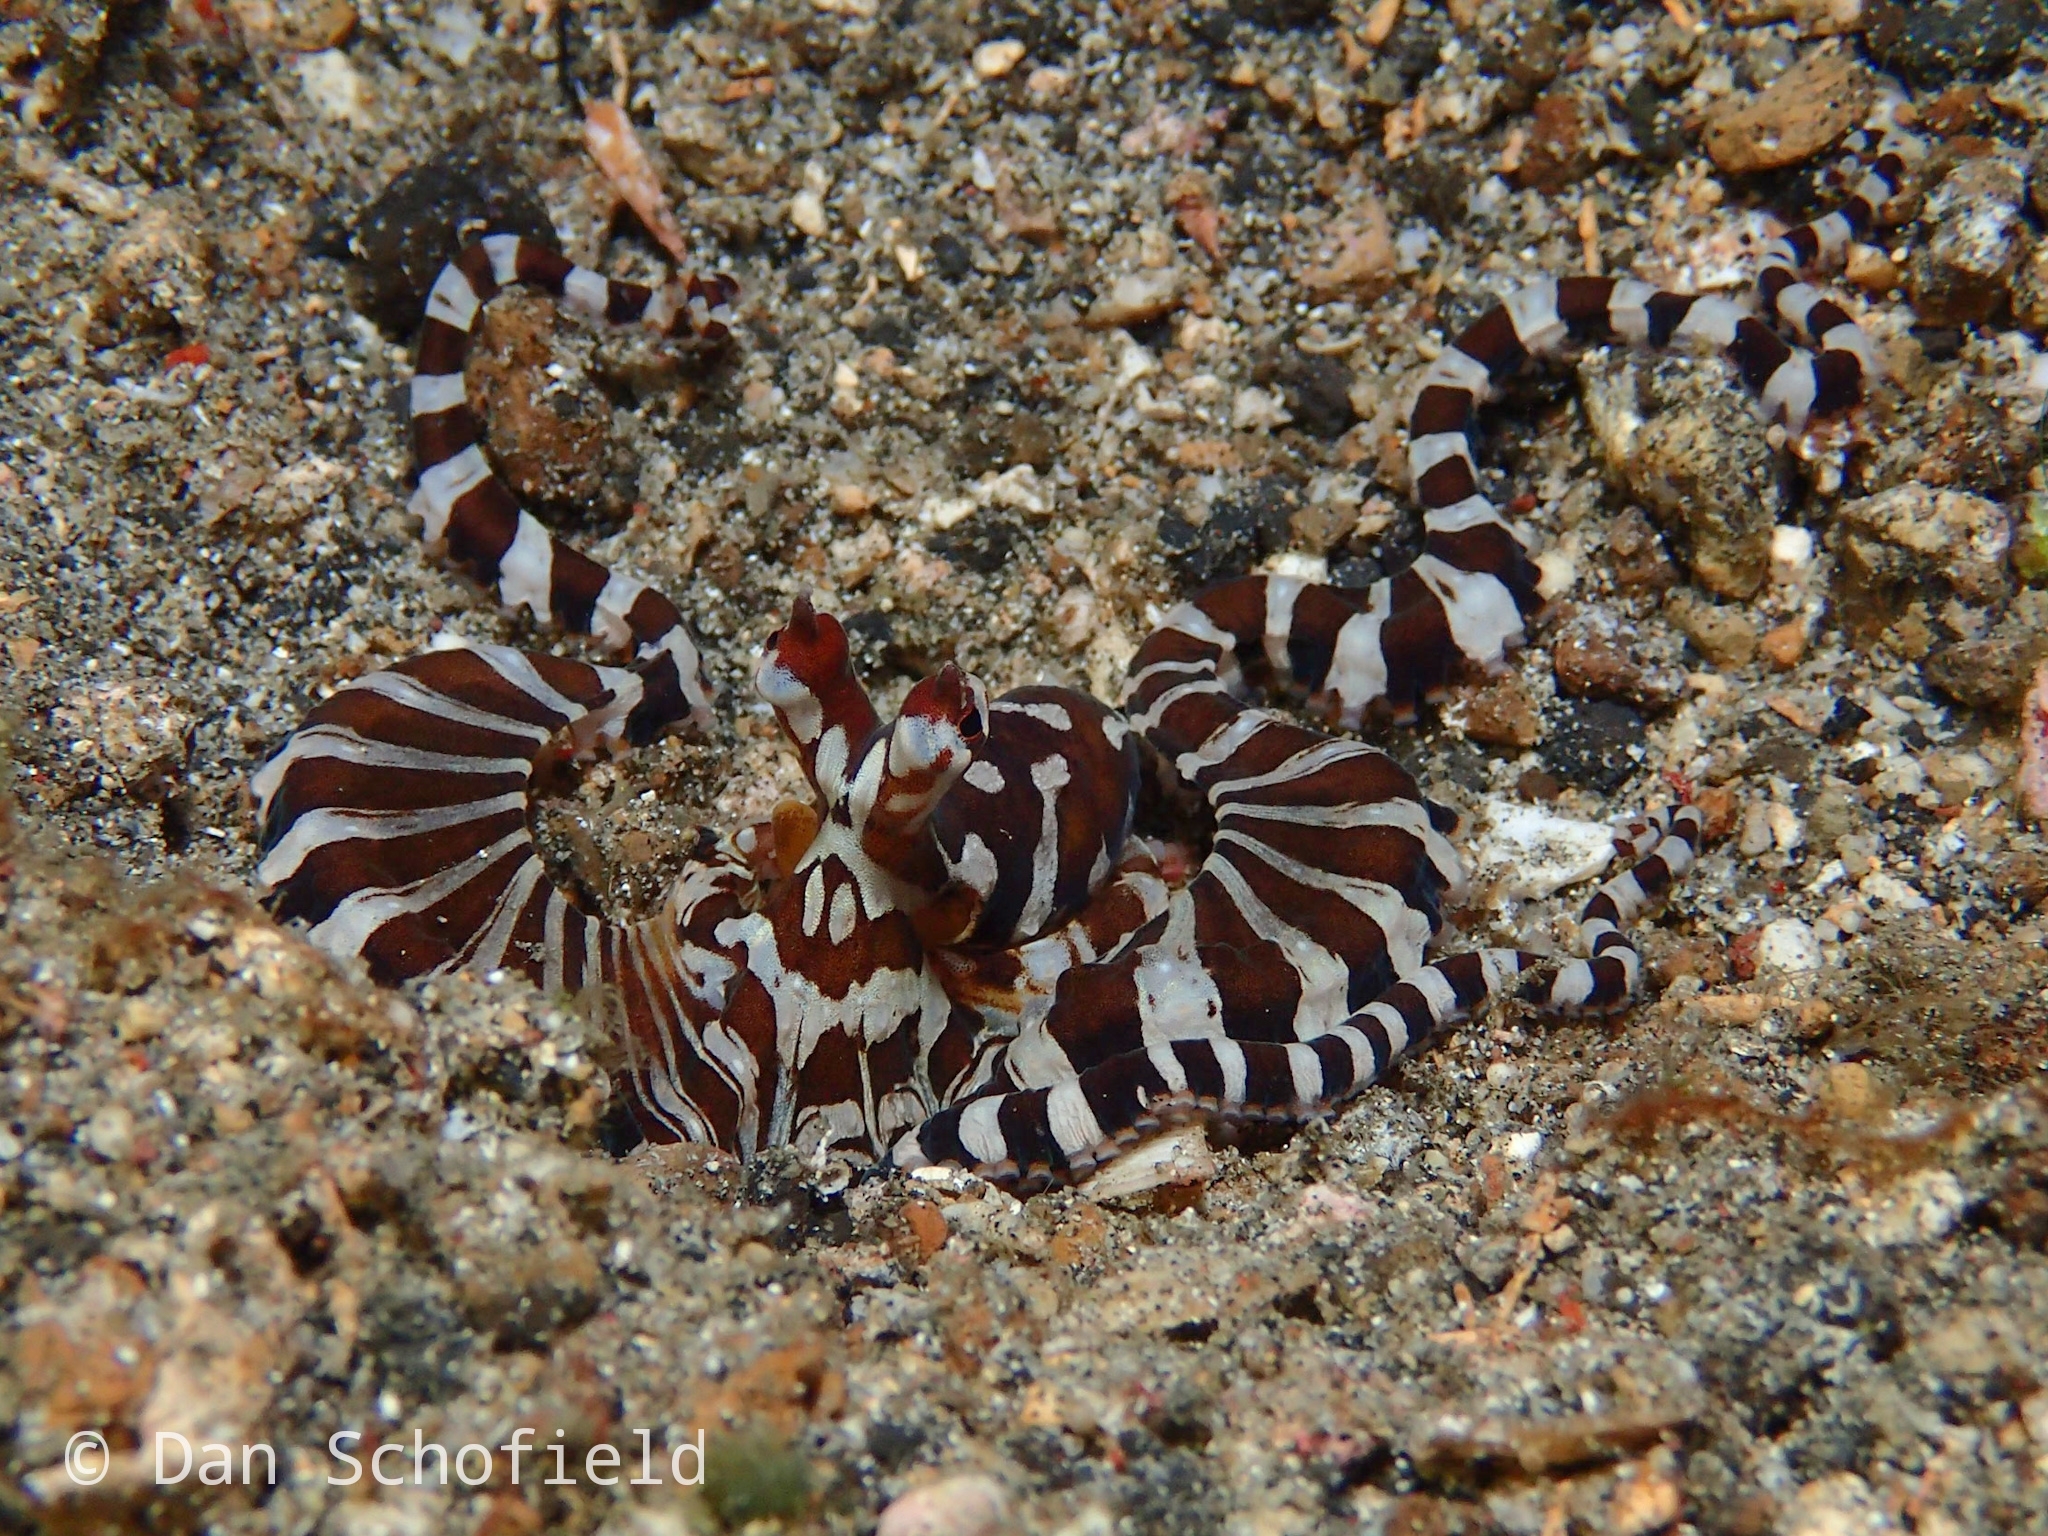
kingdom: Animalia
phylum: Mollusca
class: Cephalopoda
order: Octopoda
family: Octopodidae
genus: Wunderpus
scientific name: Wunderpus photogenicus
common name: Wunderpus
